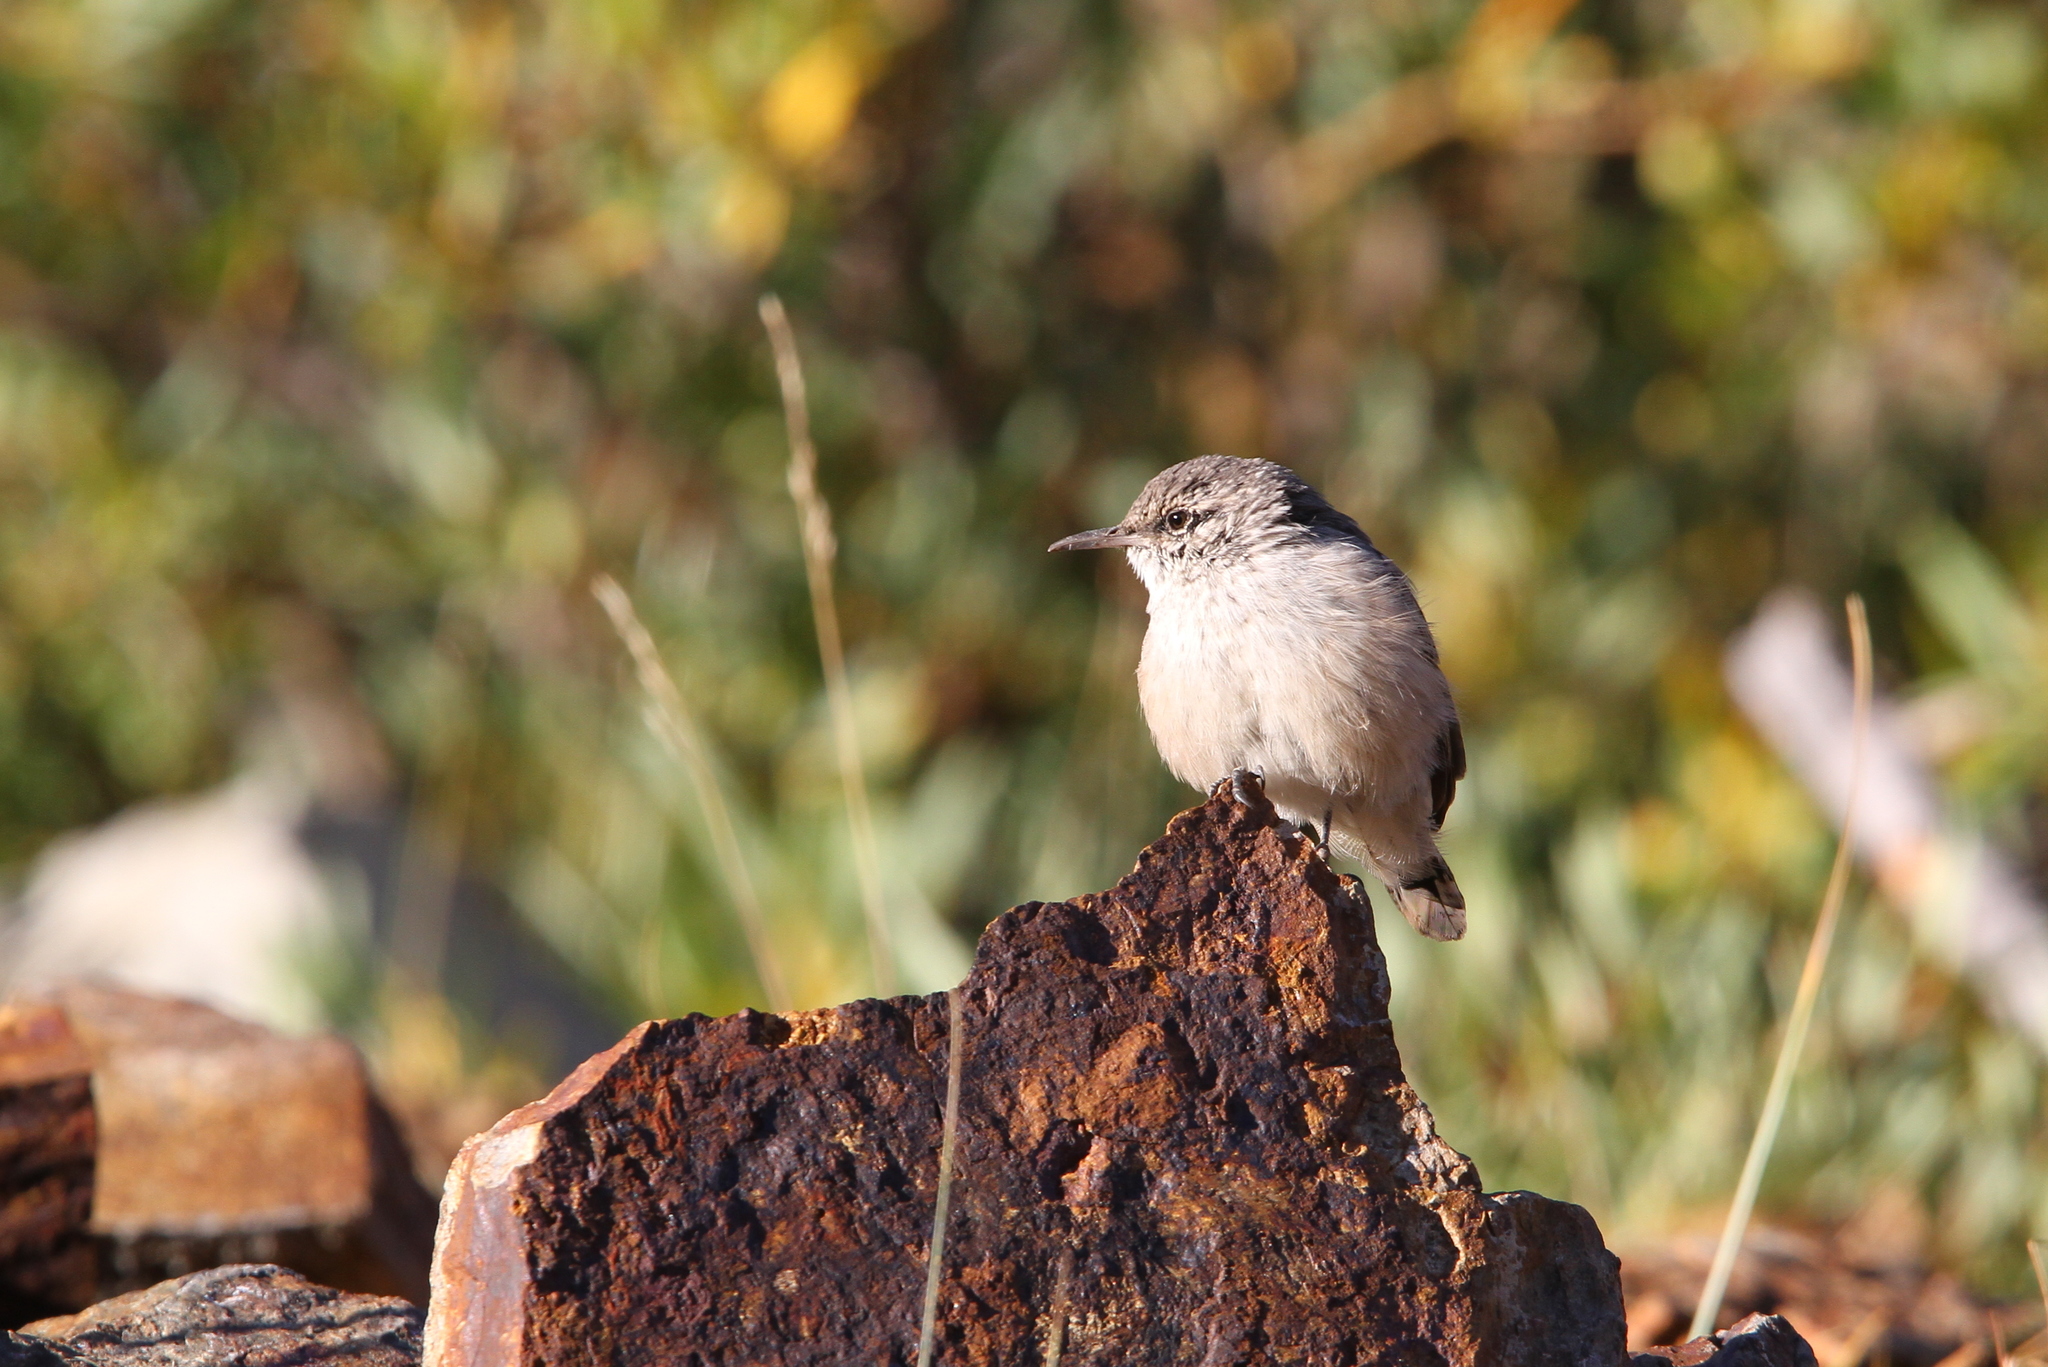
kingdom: Animalia
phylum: Chordata
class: Aves
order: Passeriformes
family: Troglodytidae
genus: Salpinctes
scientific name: Salpinctes obsoletus
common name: Rock wren
